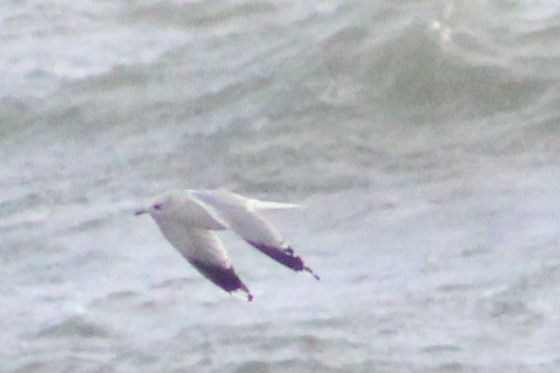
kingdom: Animalia
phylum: Chordata
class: Aves
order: Charadriiformes
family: Laridae
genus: Larus
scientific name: Larus canus
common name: Mew gull
